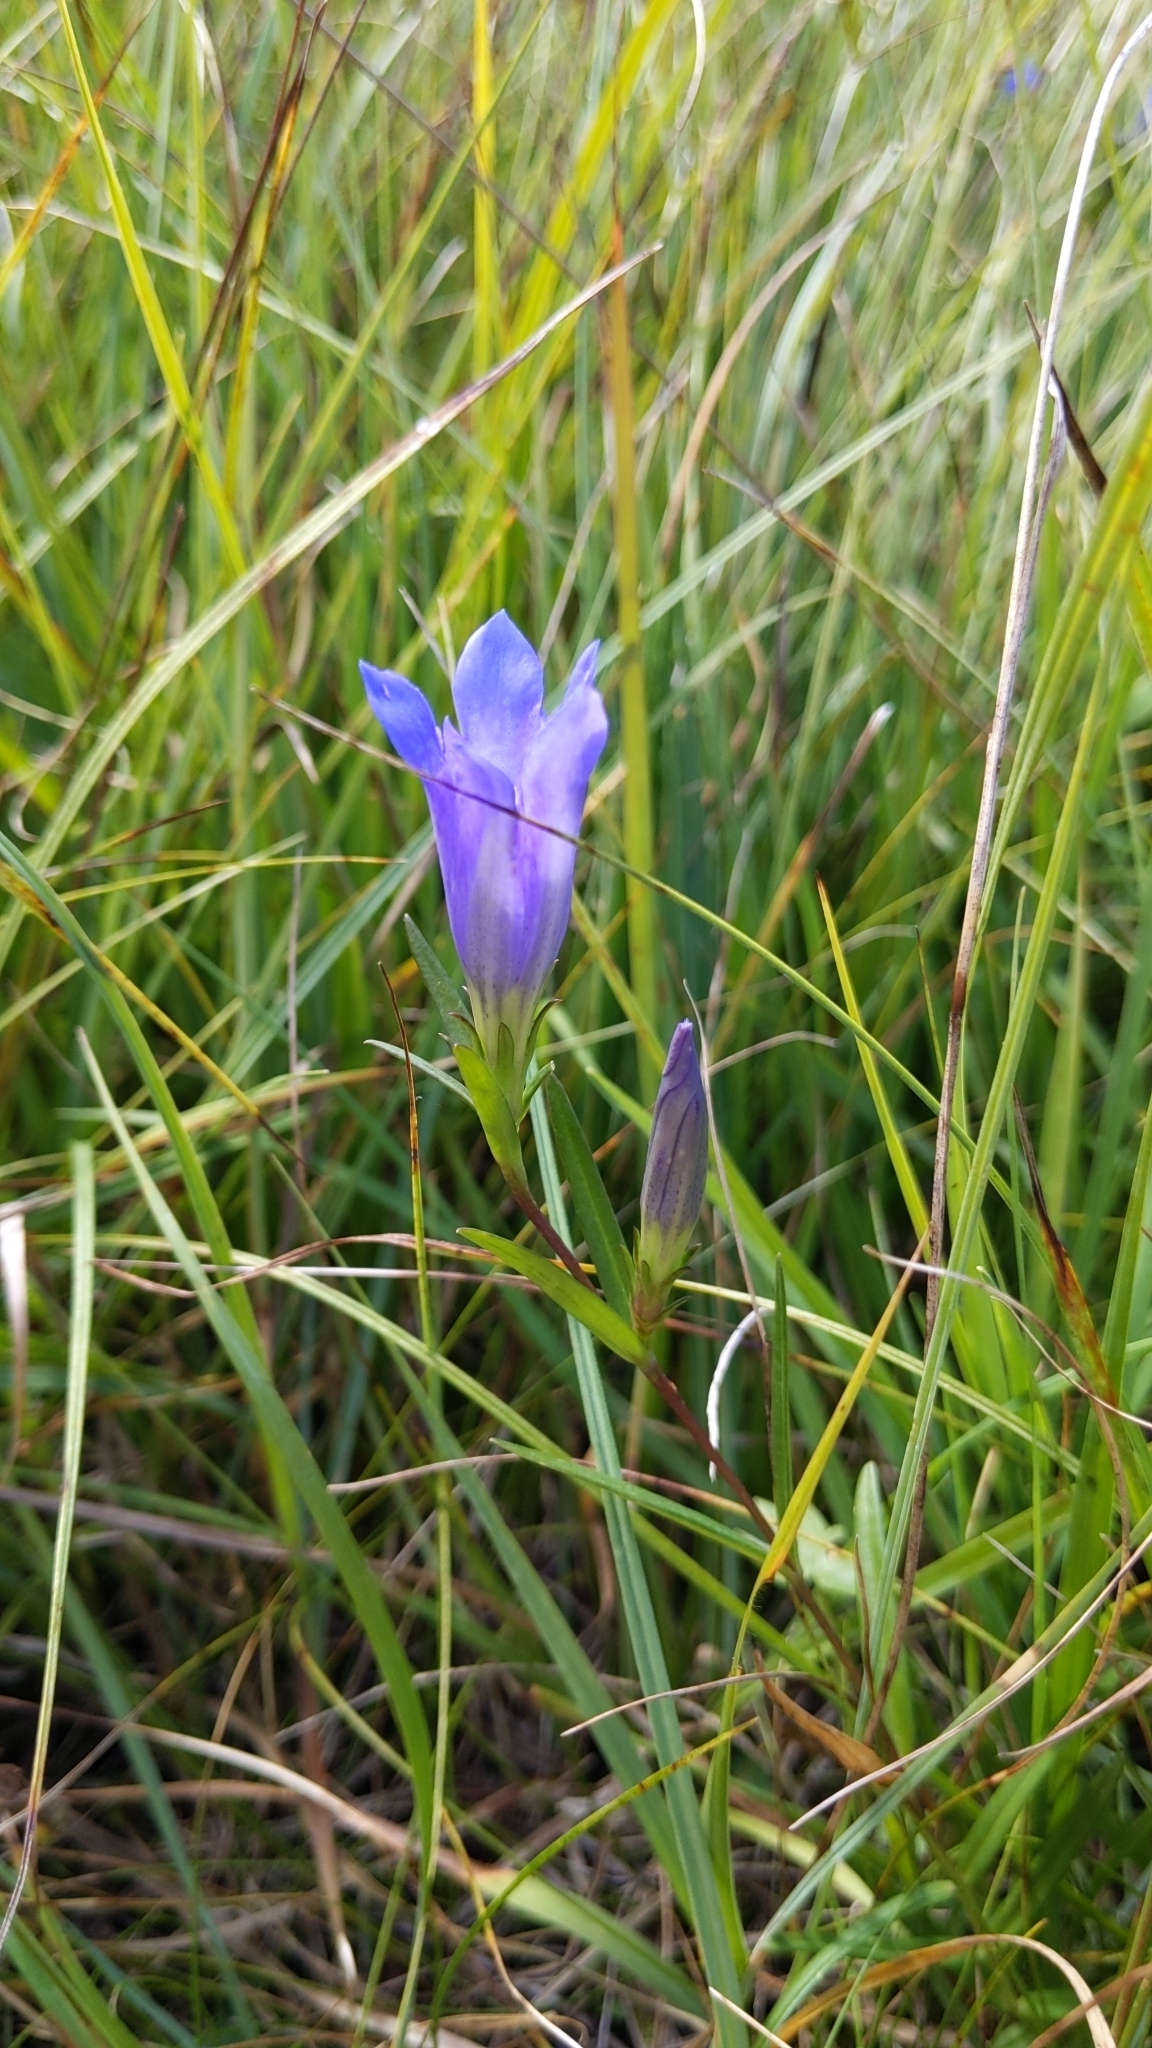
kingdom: Plantae
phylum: Tracheophyta
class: Magnoliopsida
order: Gentianales
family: Gentianaceae
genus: Gentiana
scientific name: Gentiana pneumonanthe
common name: Marsh gentian
